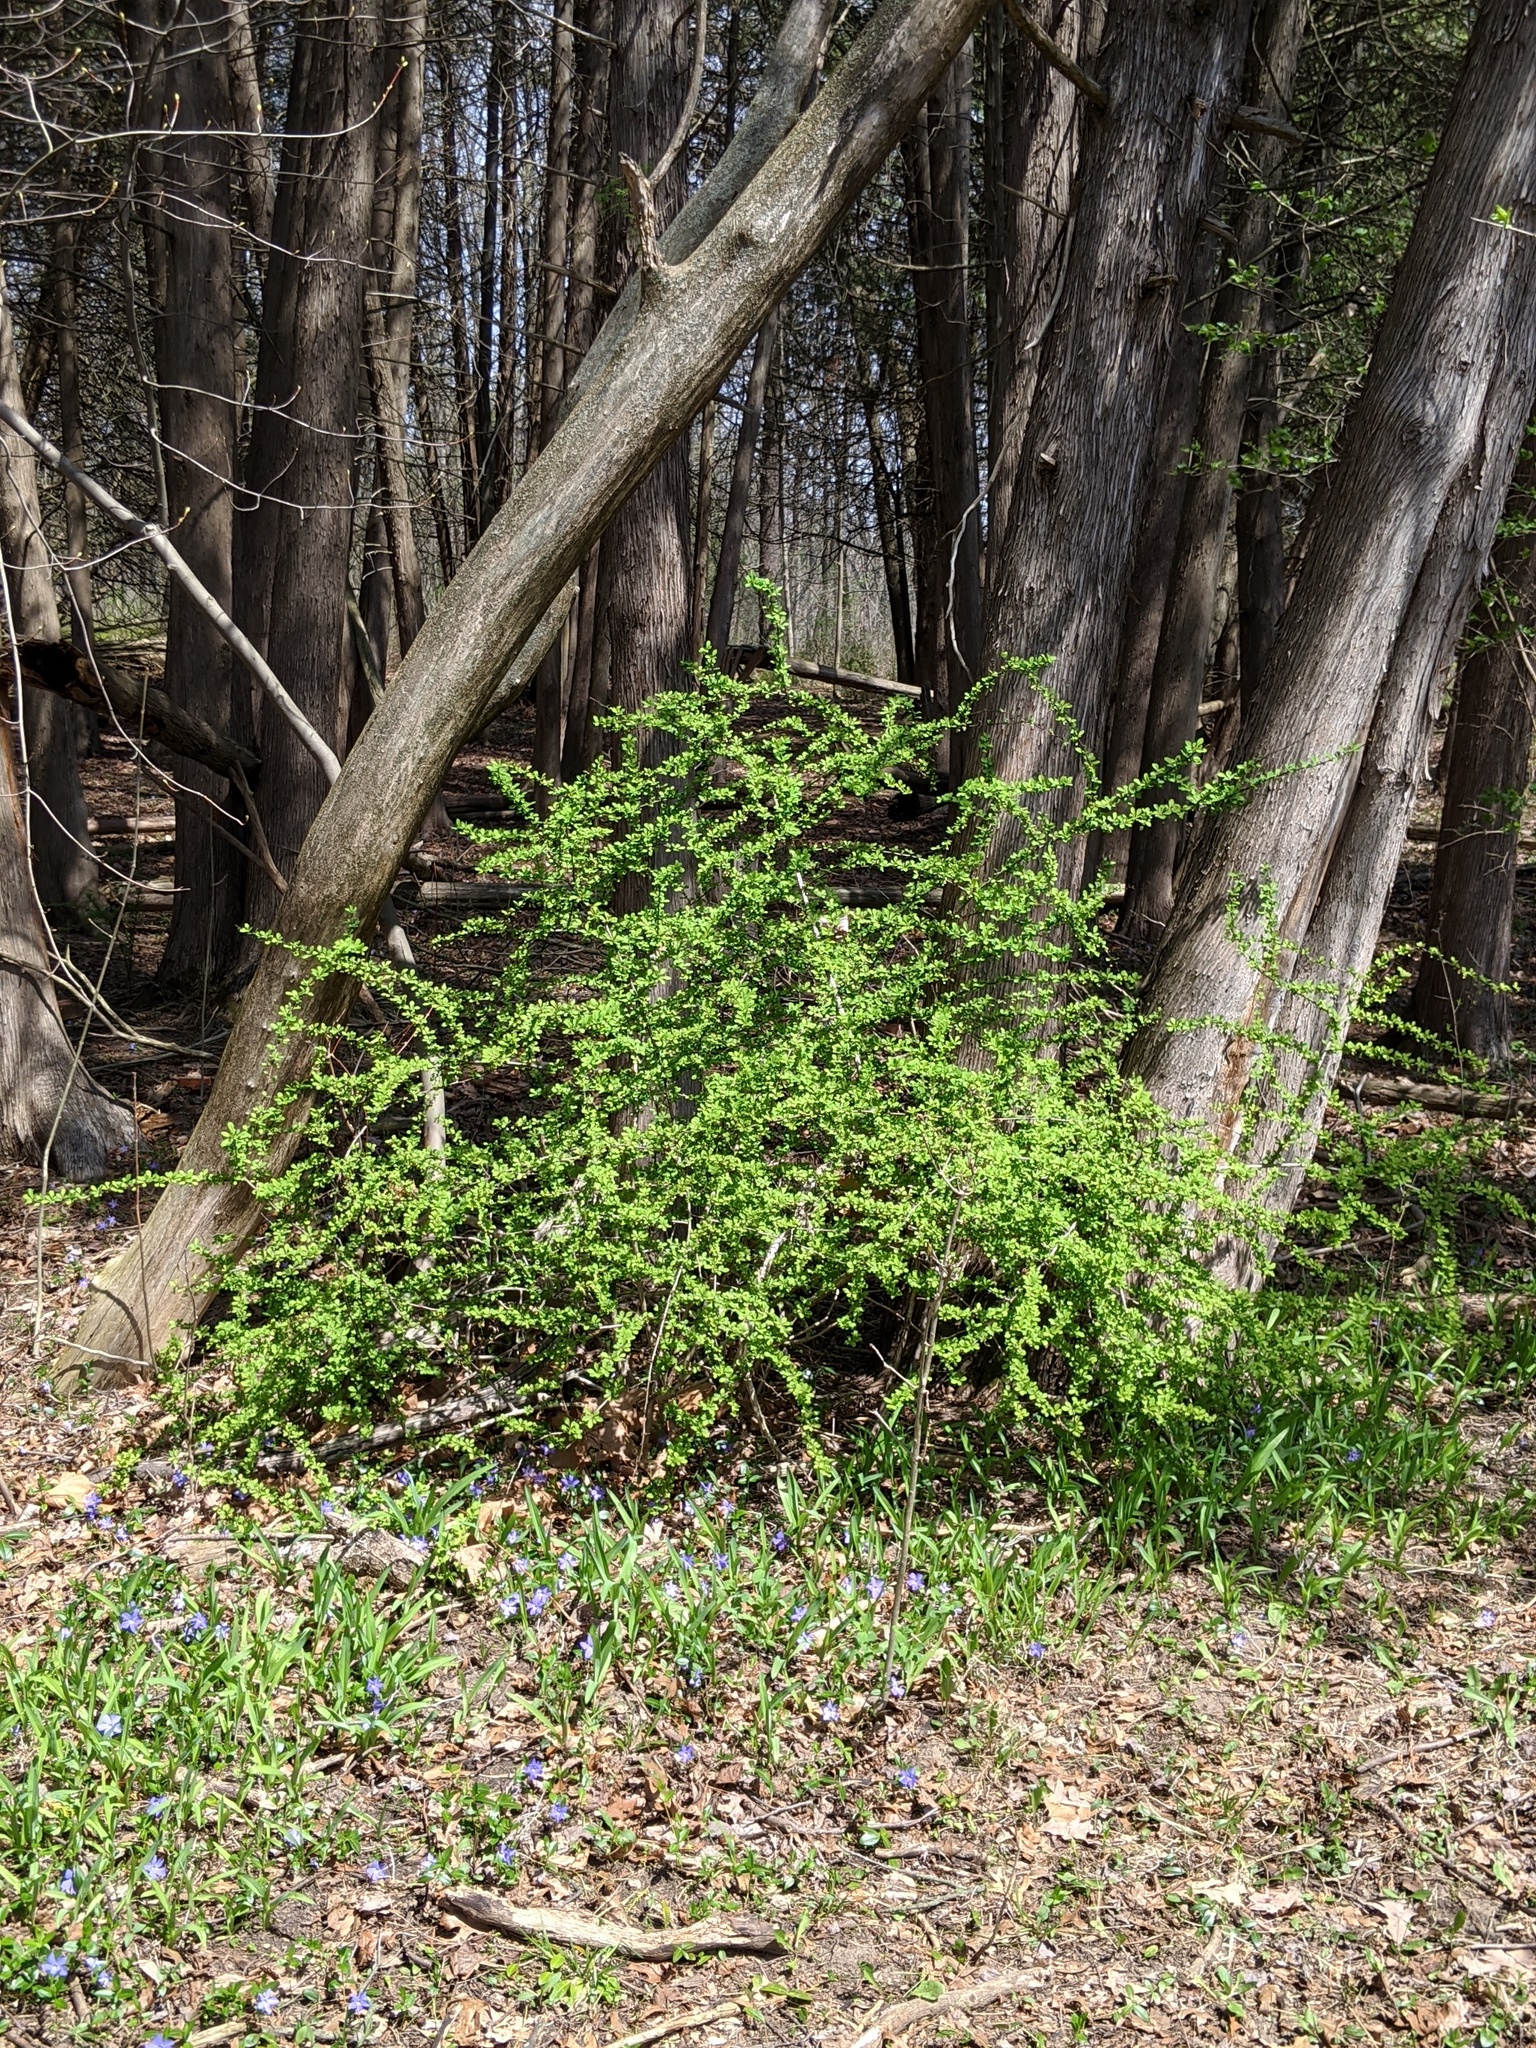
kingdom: Plantae
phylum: Tracheophyta
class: Magnoliopsida
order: Ranunculales
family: Berberidaceae
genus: Berberis
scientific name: Berberis thunbergii
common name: Japanese barberry
